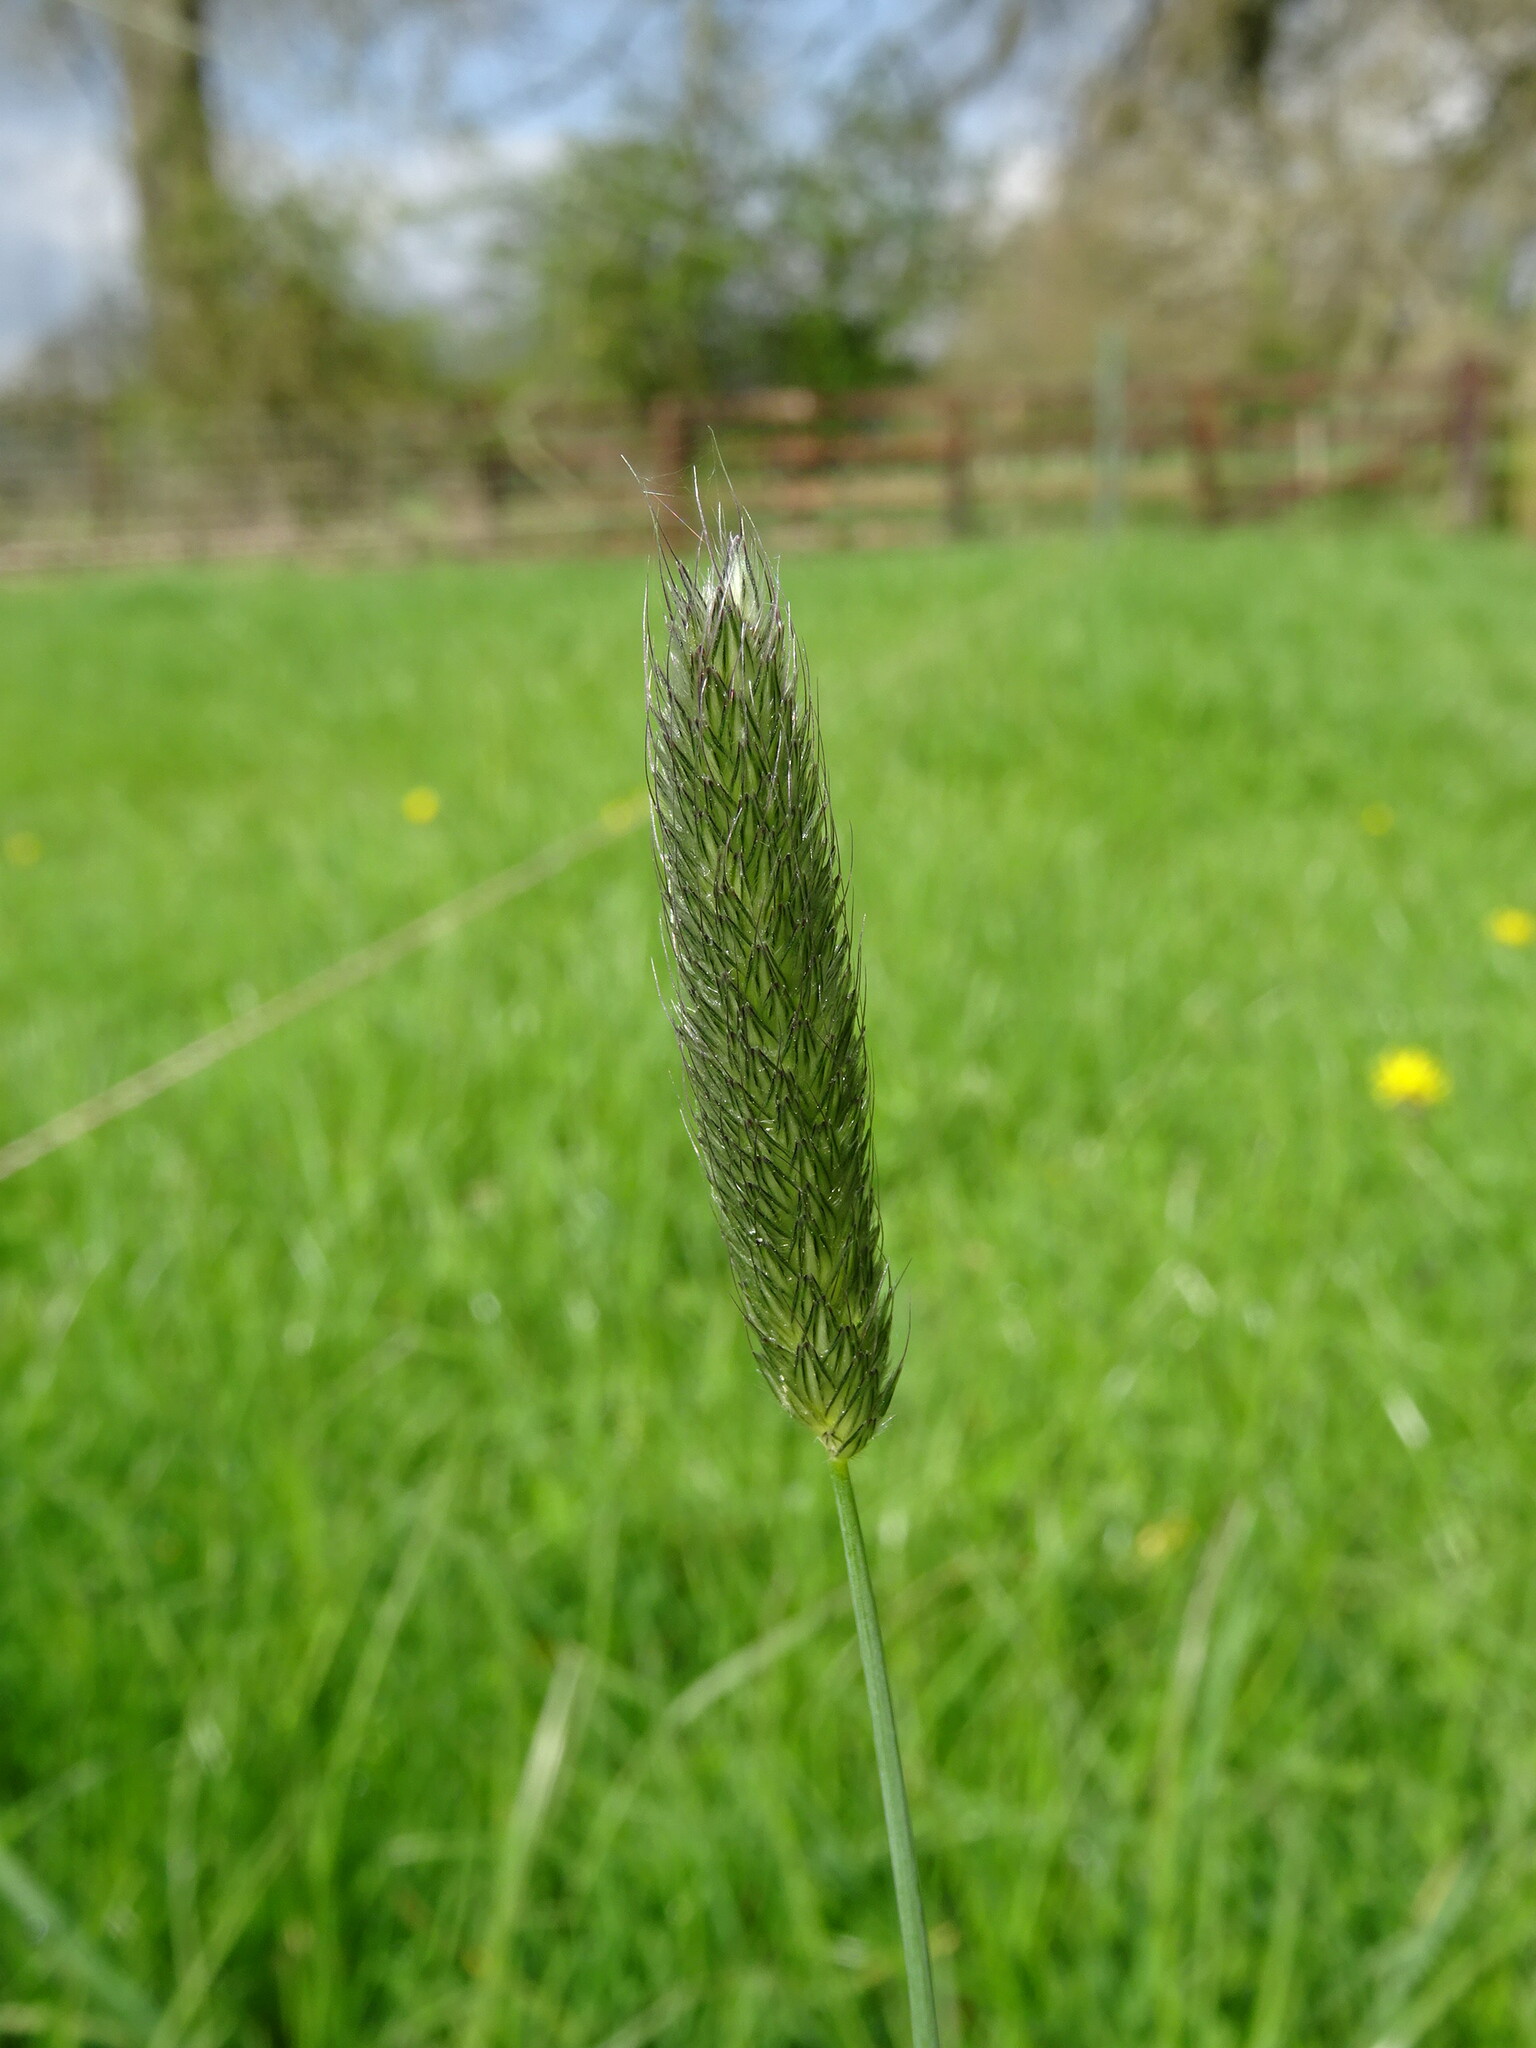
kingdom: Plantae
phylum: Tracheophyta
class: Liliopsida
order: Poales
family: Poaceae
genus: Alopecurus
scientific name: Alopecurus pratensis
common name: Meadow foxtail
